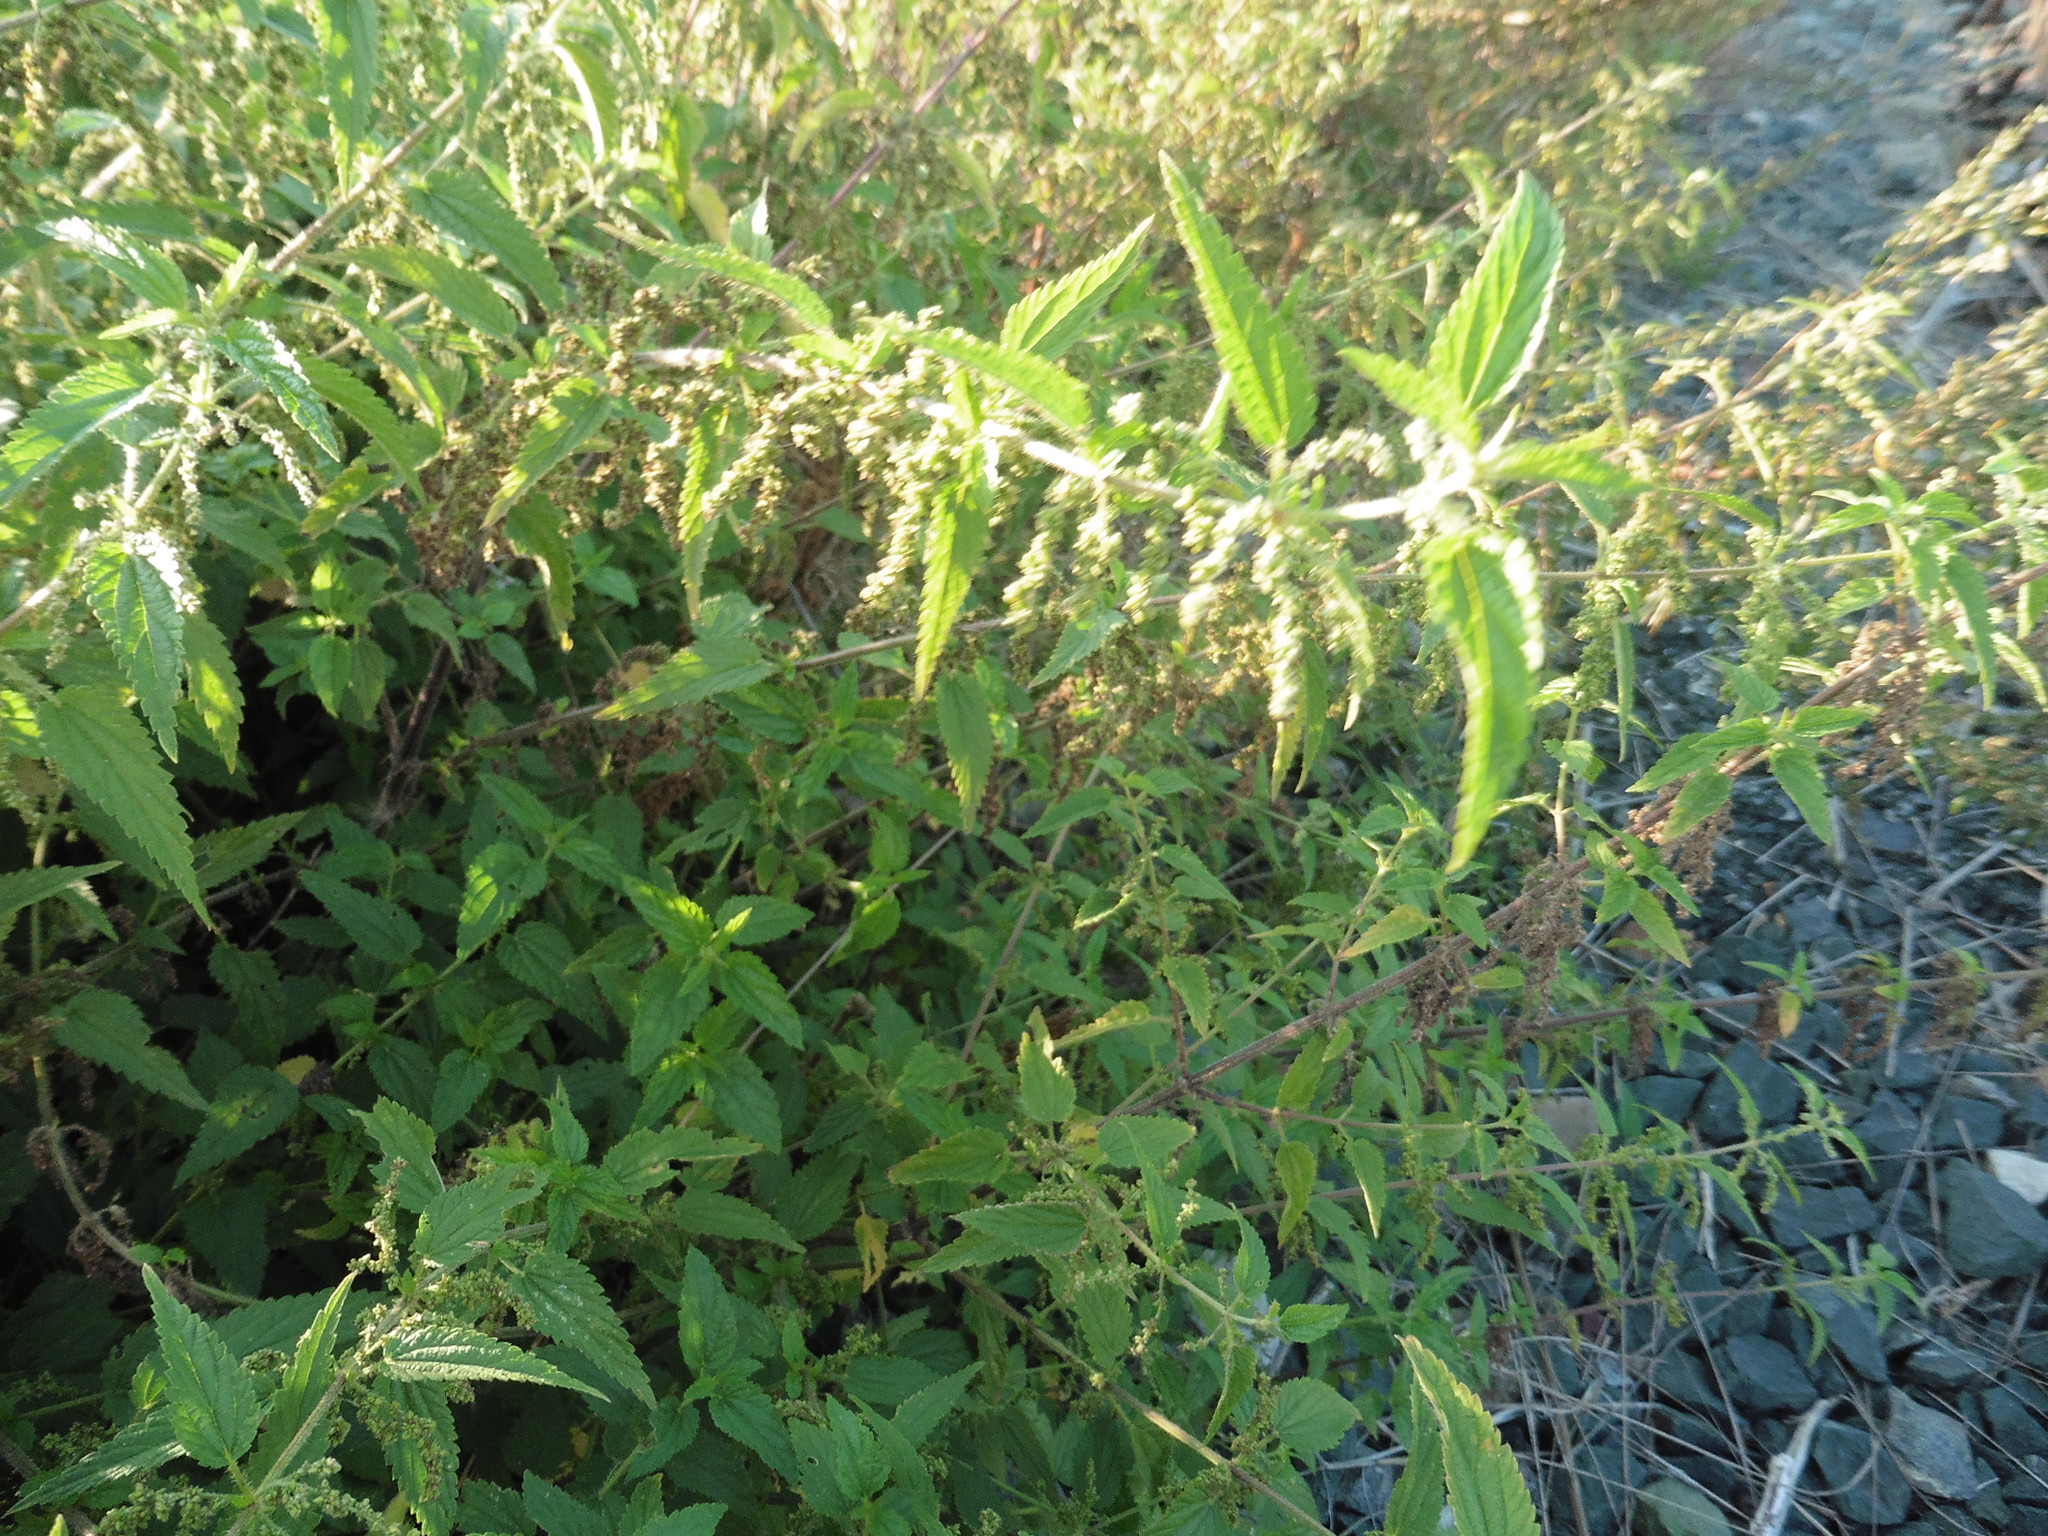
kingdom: Plantae
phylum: Tracheophyta
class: Magnoliopsida
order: Rosales
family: Urticaceae
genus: Urtica
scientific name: Urtica dioica
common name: Common nettle
